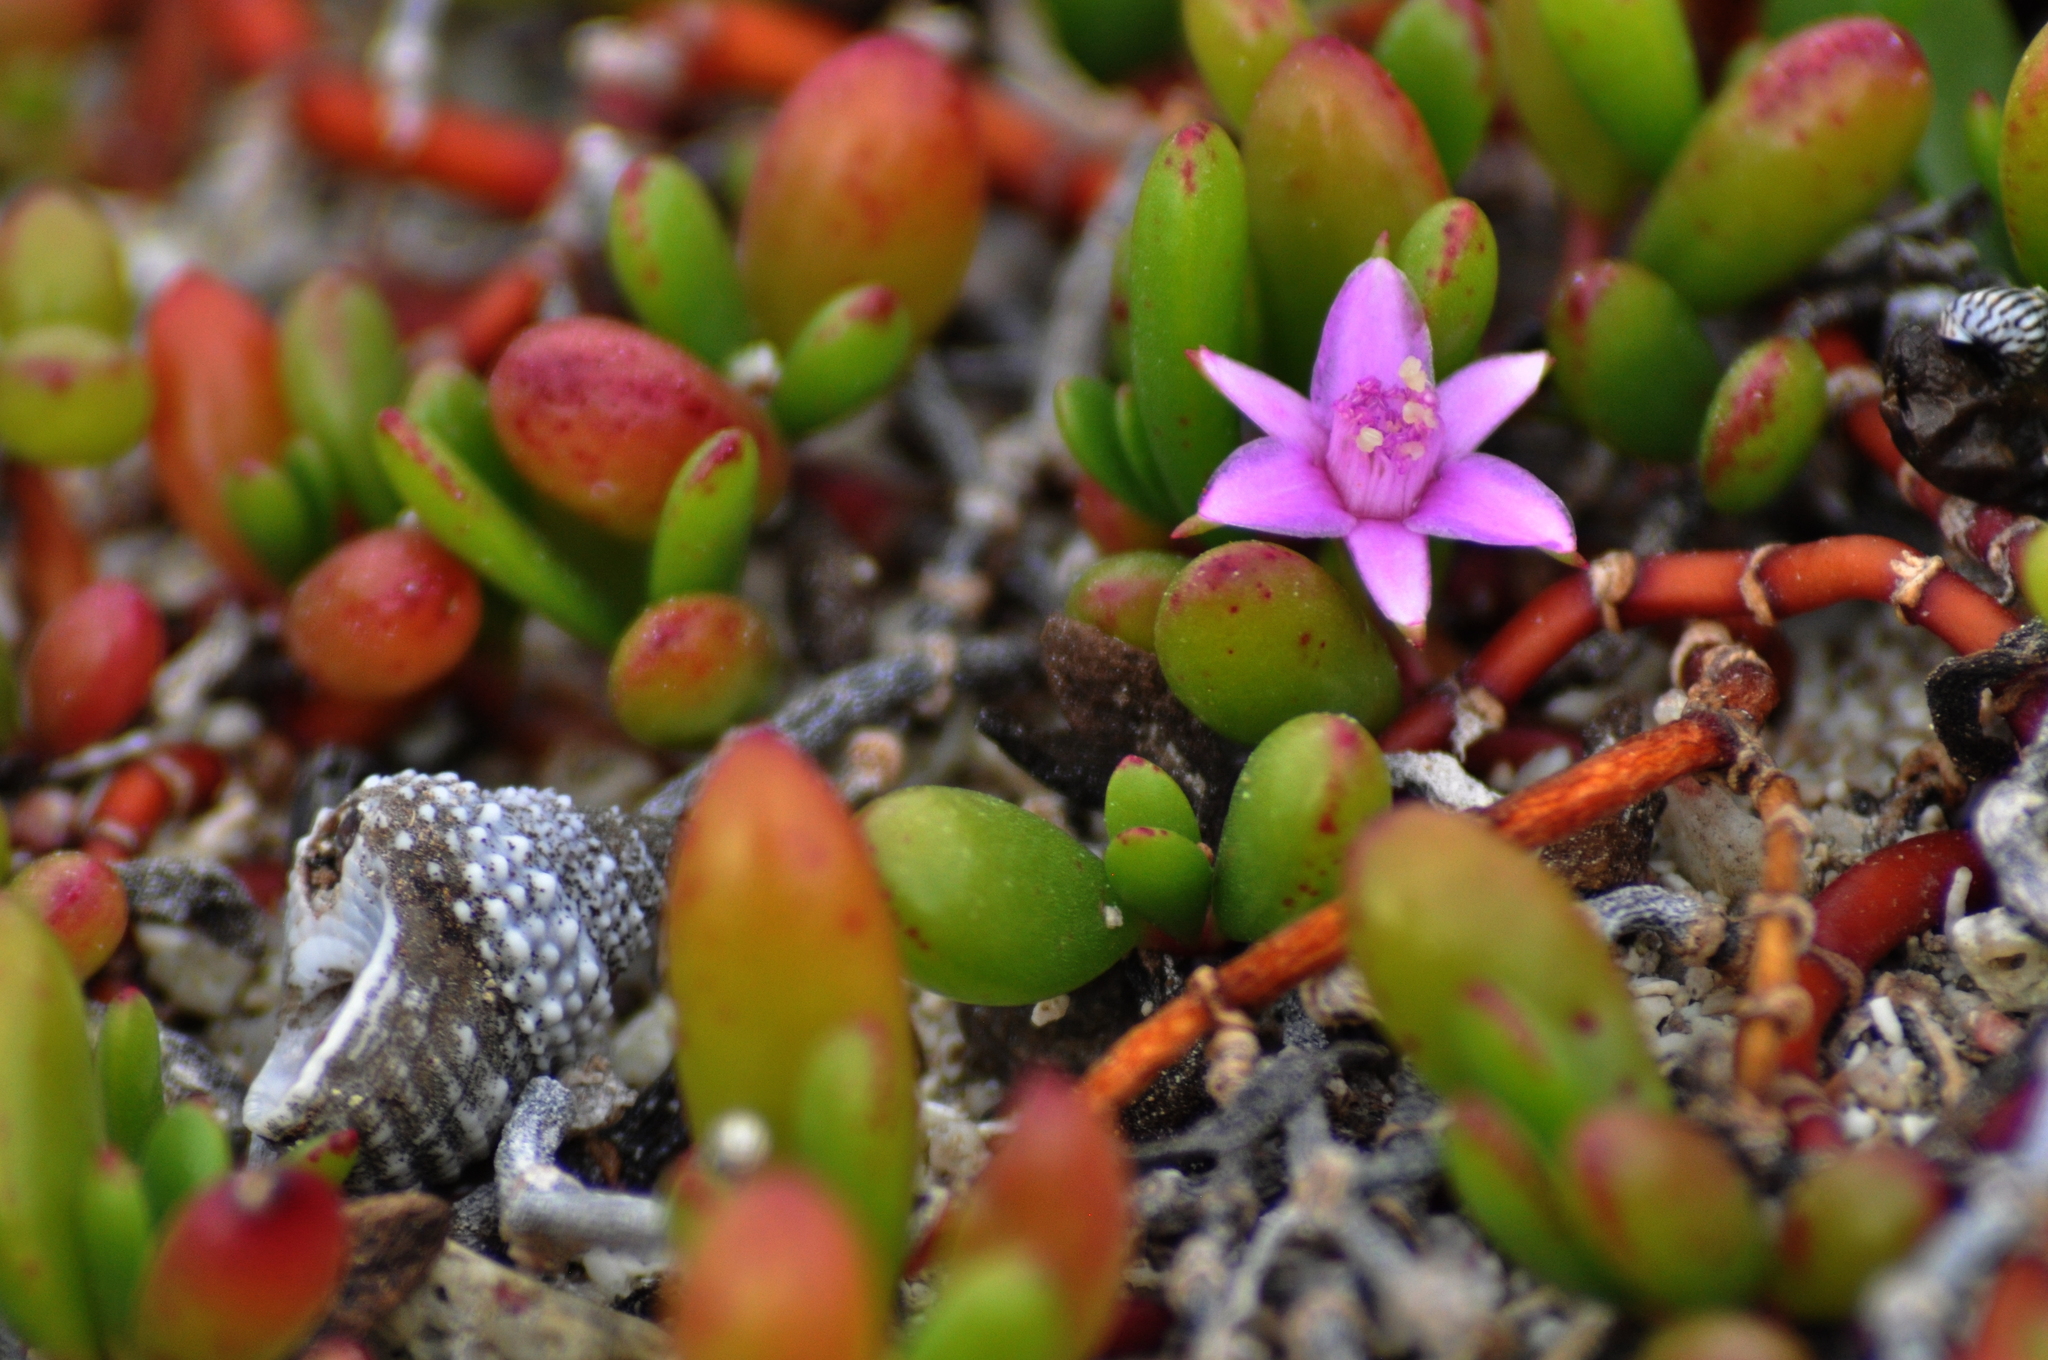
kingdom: Plantae
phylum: Tracheophyta
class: Magnoliopsida
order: Caryophyllales
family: Aizoaceae
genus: Sesuvium
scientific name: Sesuvium portulacastrum
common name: Sea-purslane
